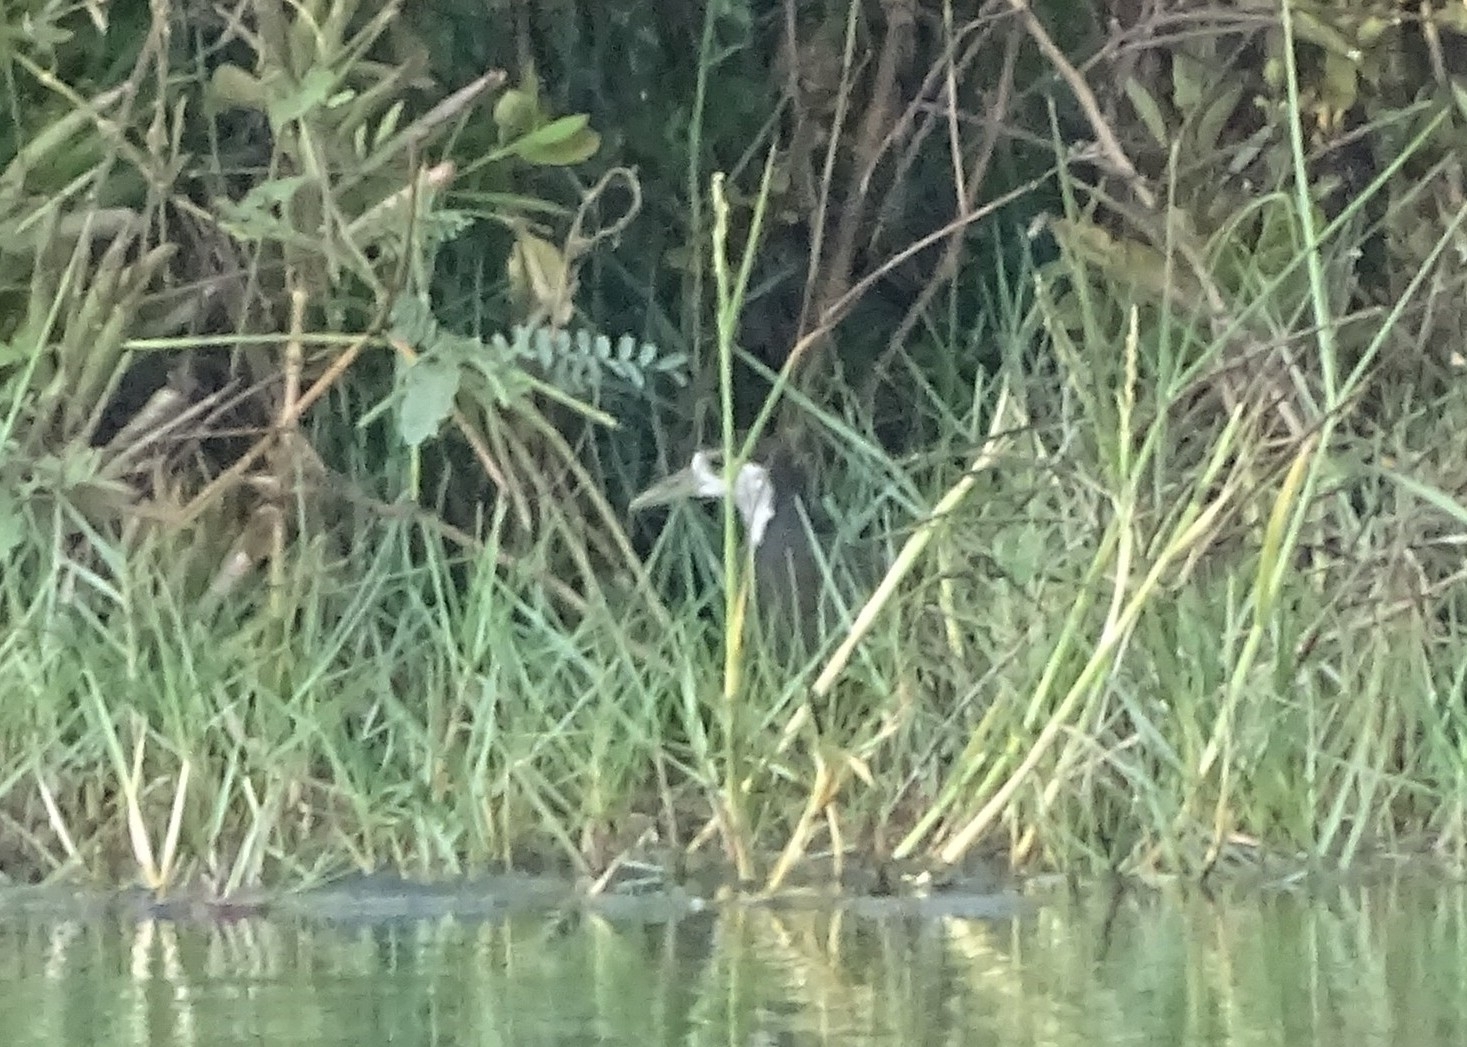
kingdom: Animalia
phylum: Chordata
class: Aves
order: Gruiformes
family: Rallidae
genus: Amaurornis
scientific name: Amaurornis phoenicurus
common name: White-breasted waterhen
